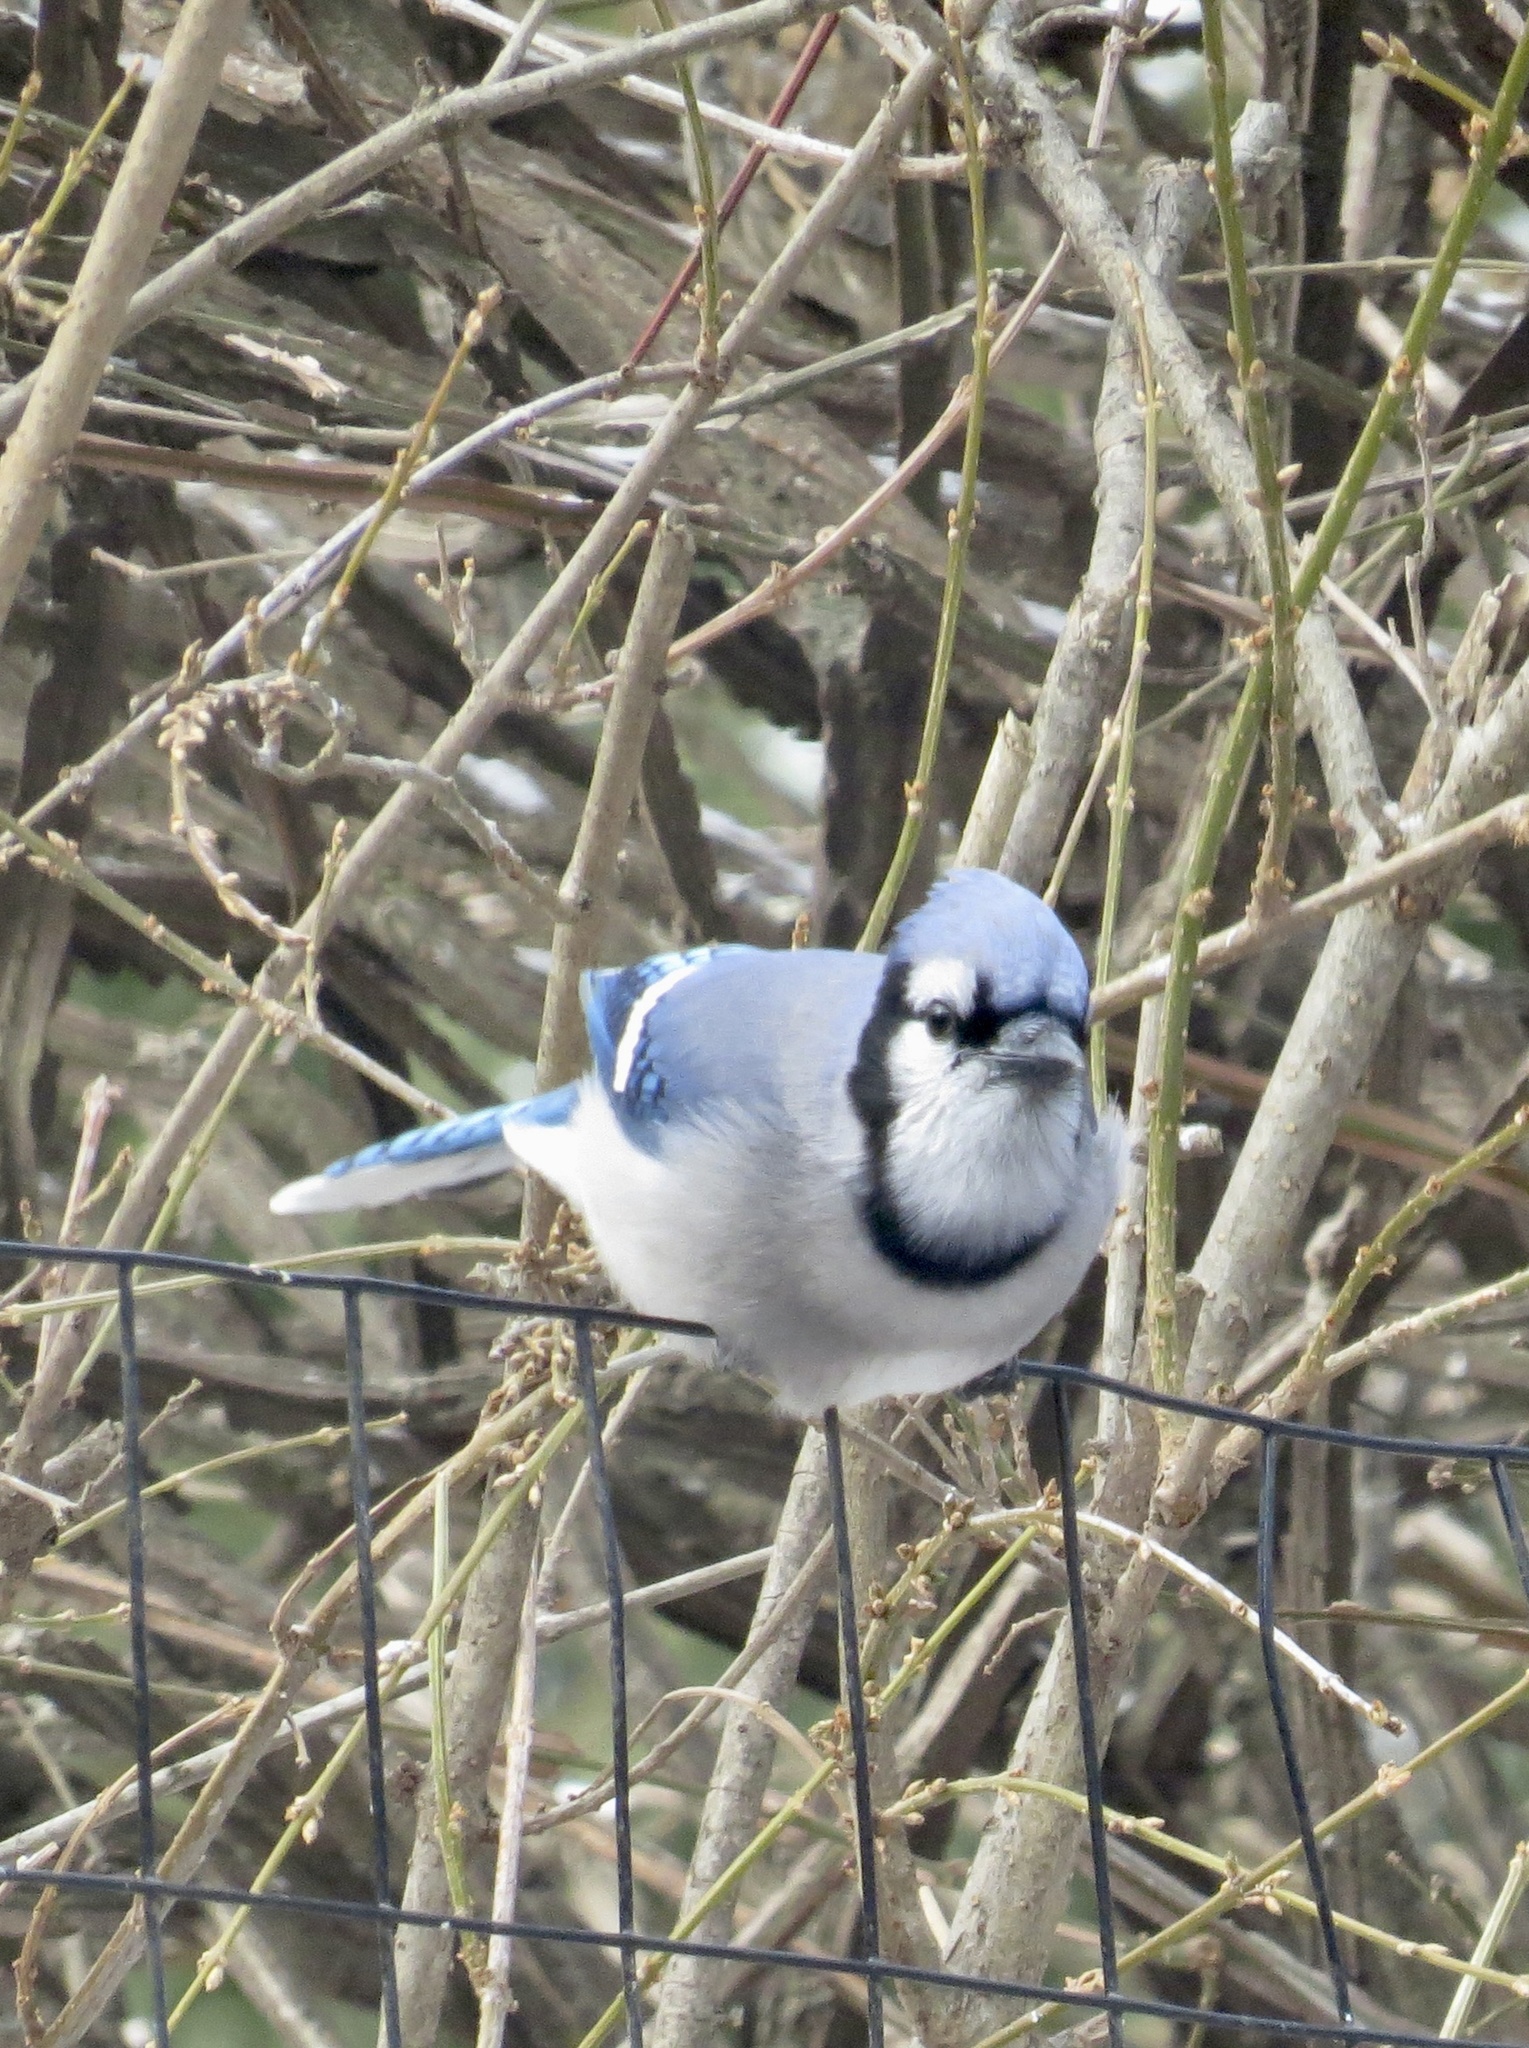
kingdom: Animalia
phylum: Chordata
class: Aves
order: Passeriformes
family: Corvidae
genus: Cyanocitta
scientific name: Cyanocitta cristata
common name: Blue jay
